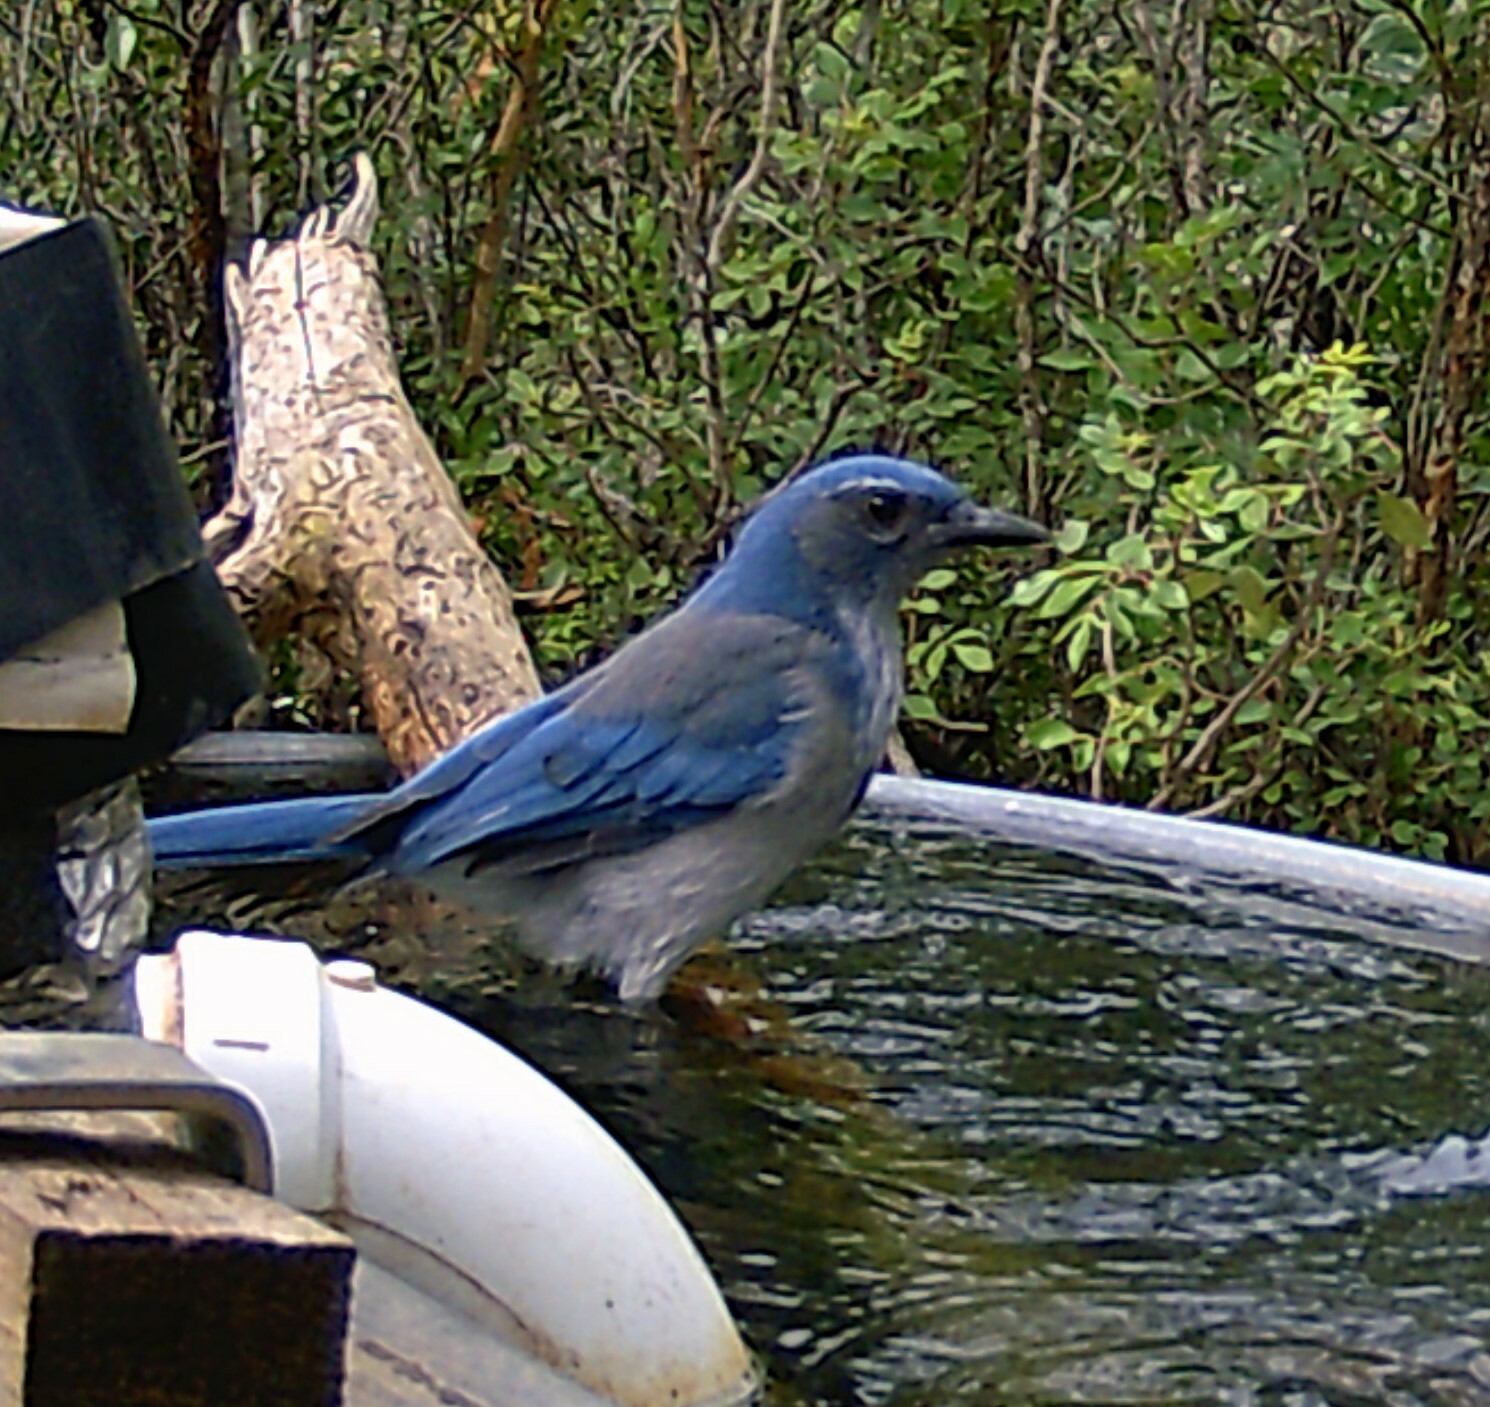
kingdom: Animalia
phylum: Chordata
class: Aves
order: Passeriformes
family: Corvidae
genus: Aphelocoma
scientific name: Aphelocoma woodhouseii
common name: Woodhouse's scrub-jay
